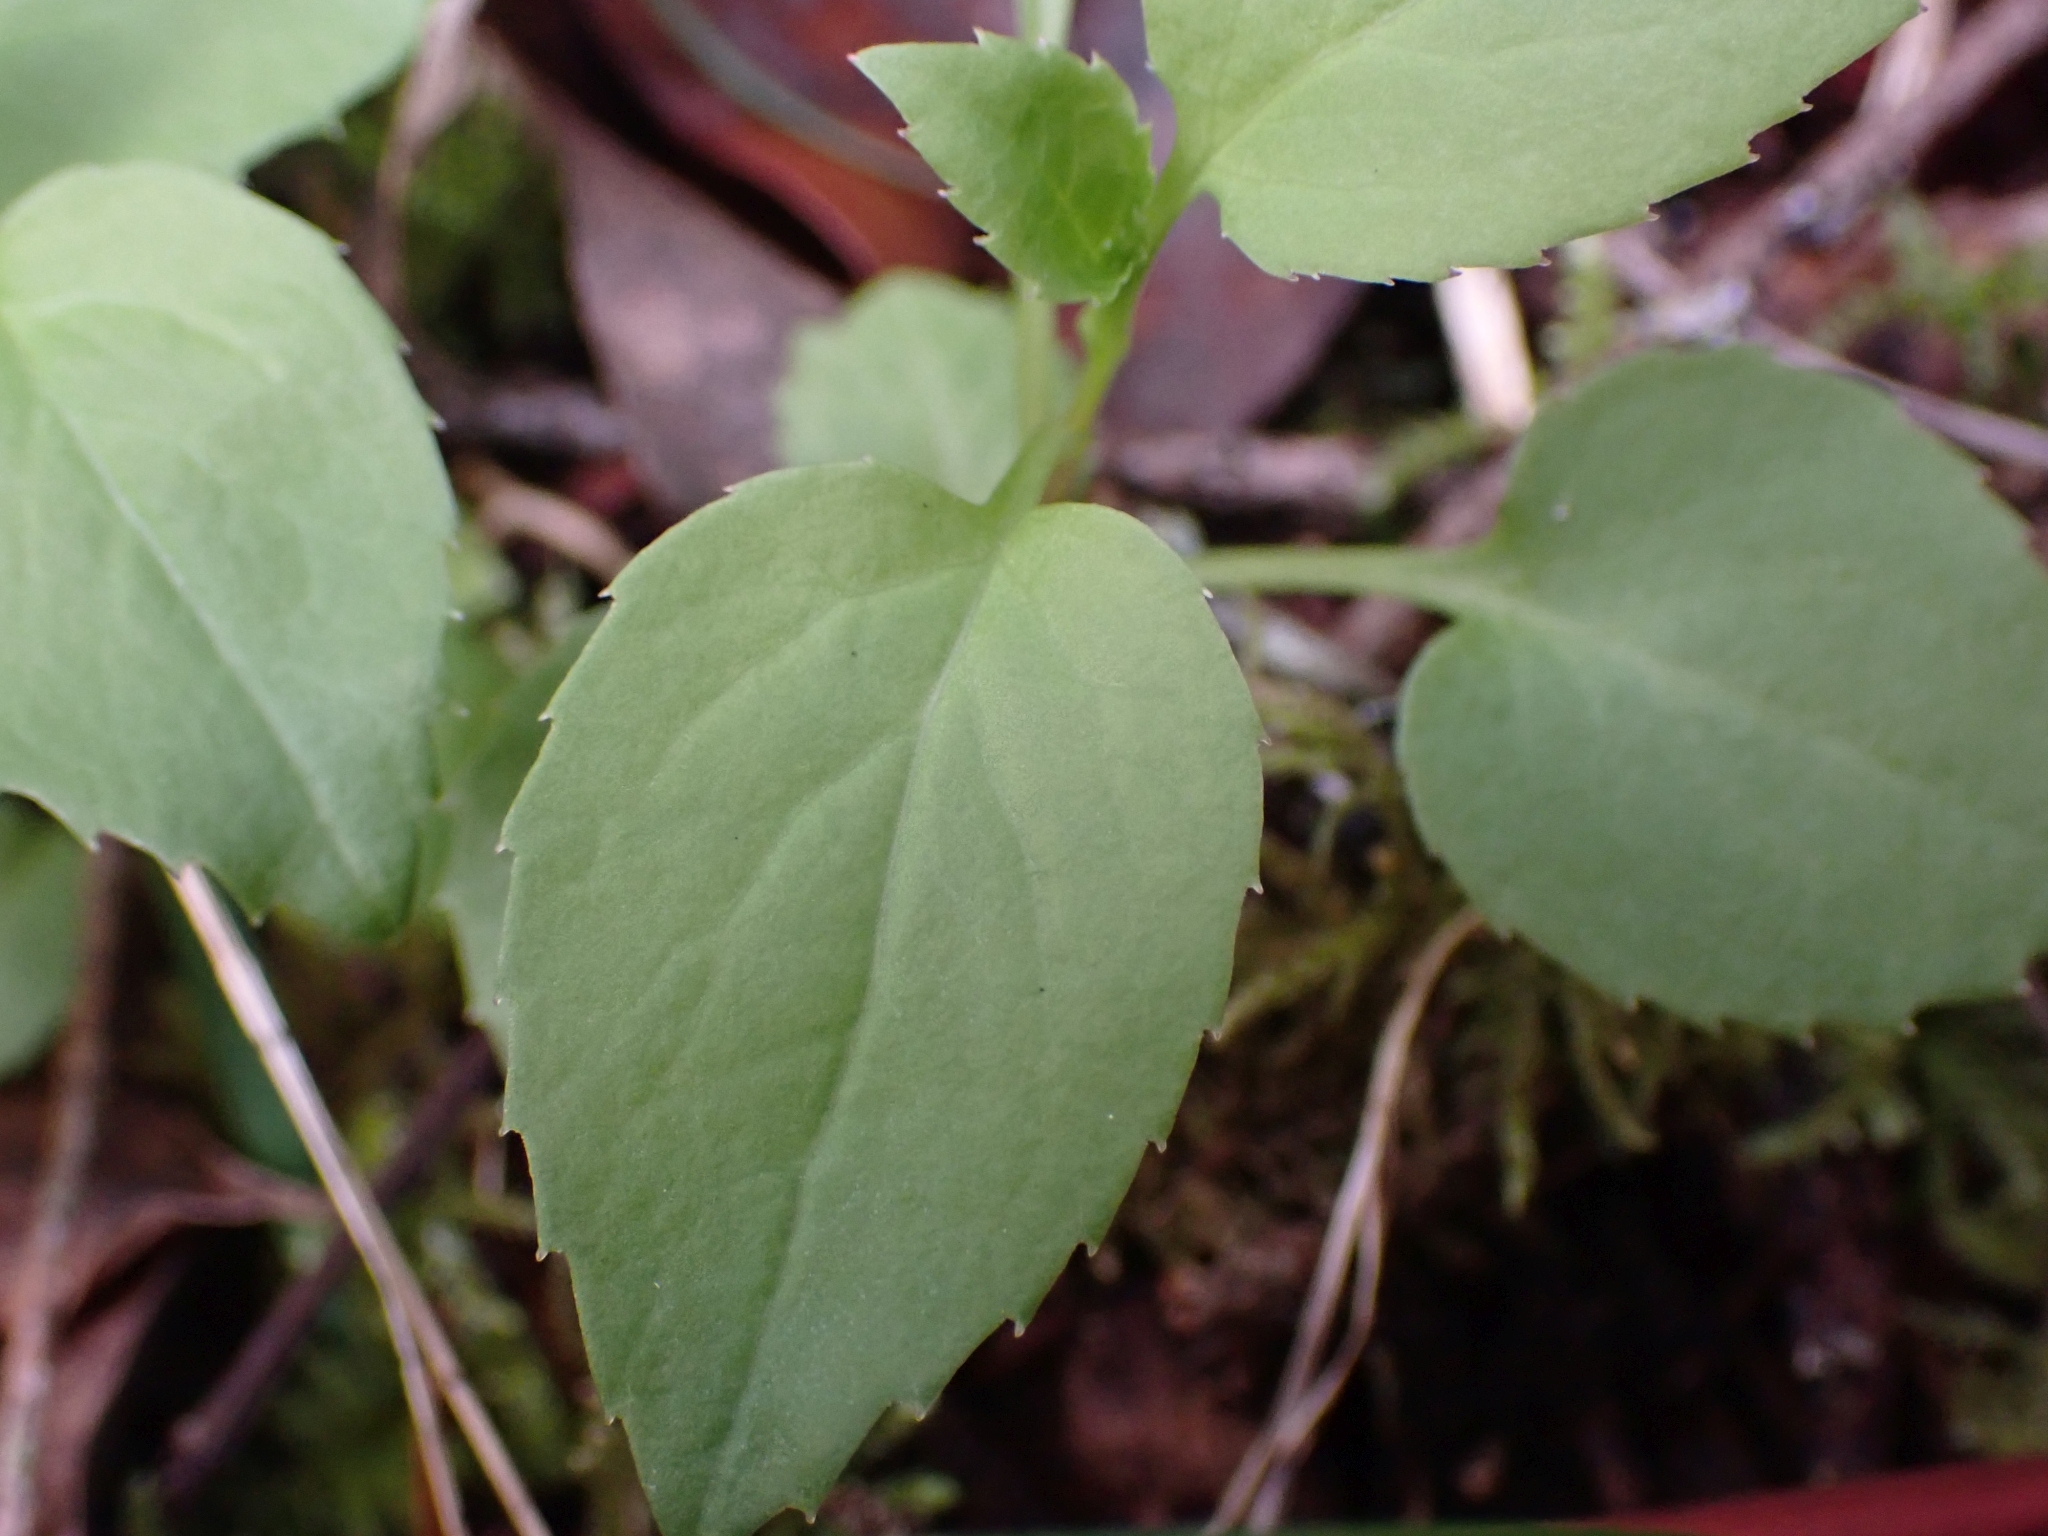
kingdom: Plantae
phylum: Tracheophyta
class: Magnoliopsida
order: Asterales
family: Campanulaceae
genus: Campanula
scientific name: Campanula scouleri
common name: Scouler's harebell
